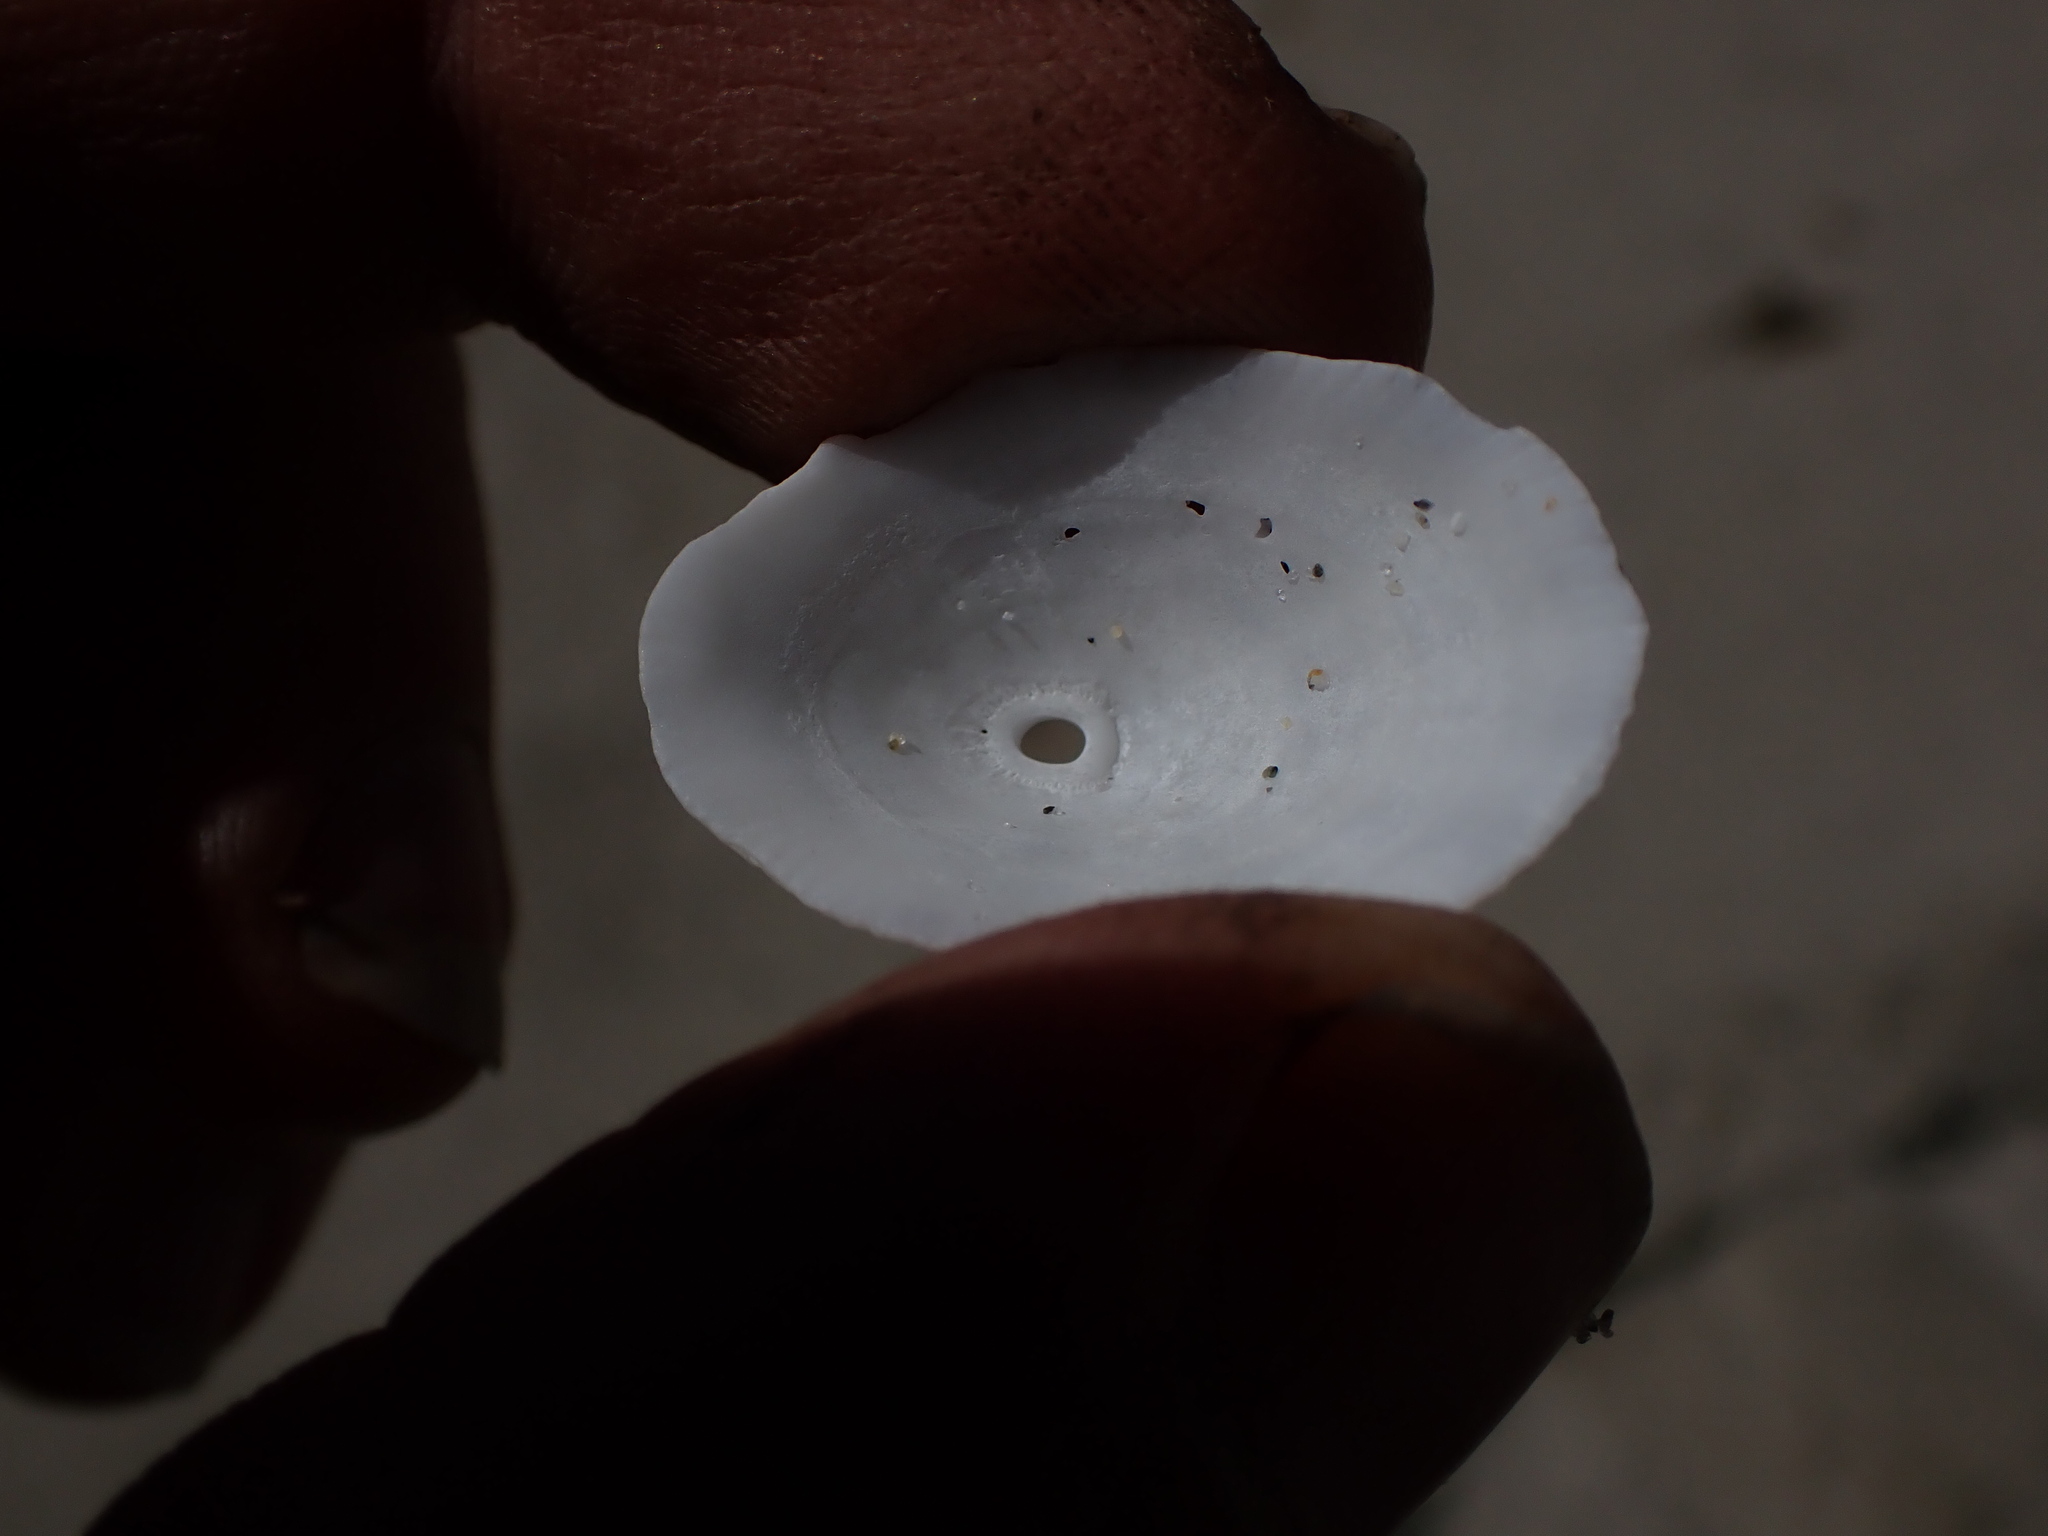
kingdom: Animalia
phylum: Mollusca
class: Gastropoda
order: Lepetellida
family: Fissurellidae
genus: Diodora
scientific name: Diodora aspera
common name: Rough keyhole limpet
